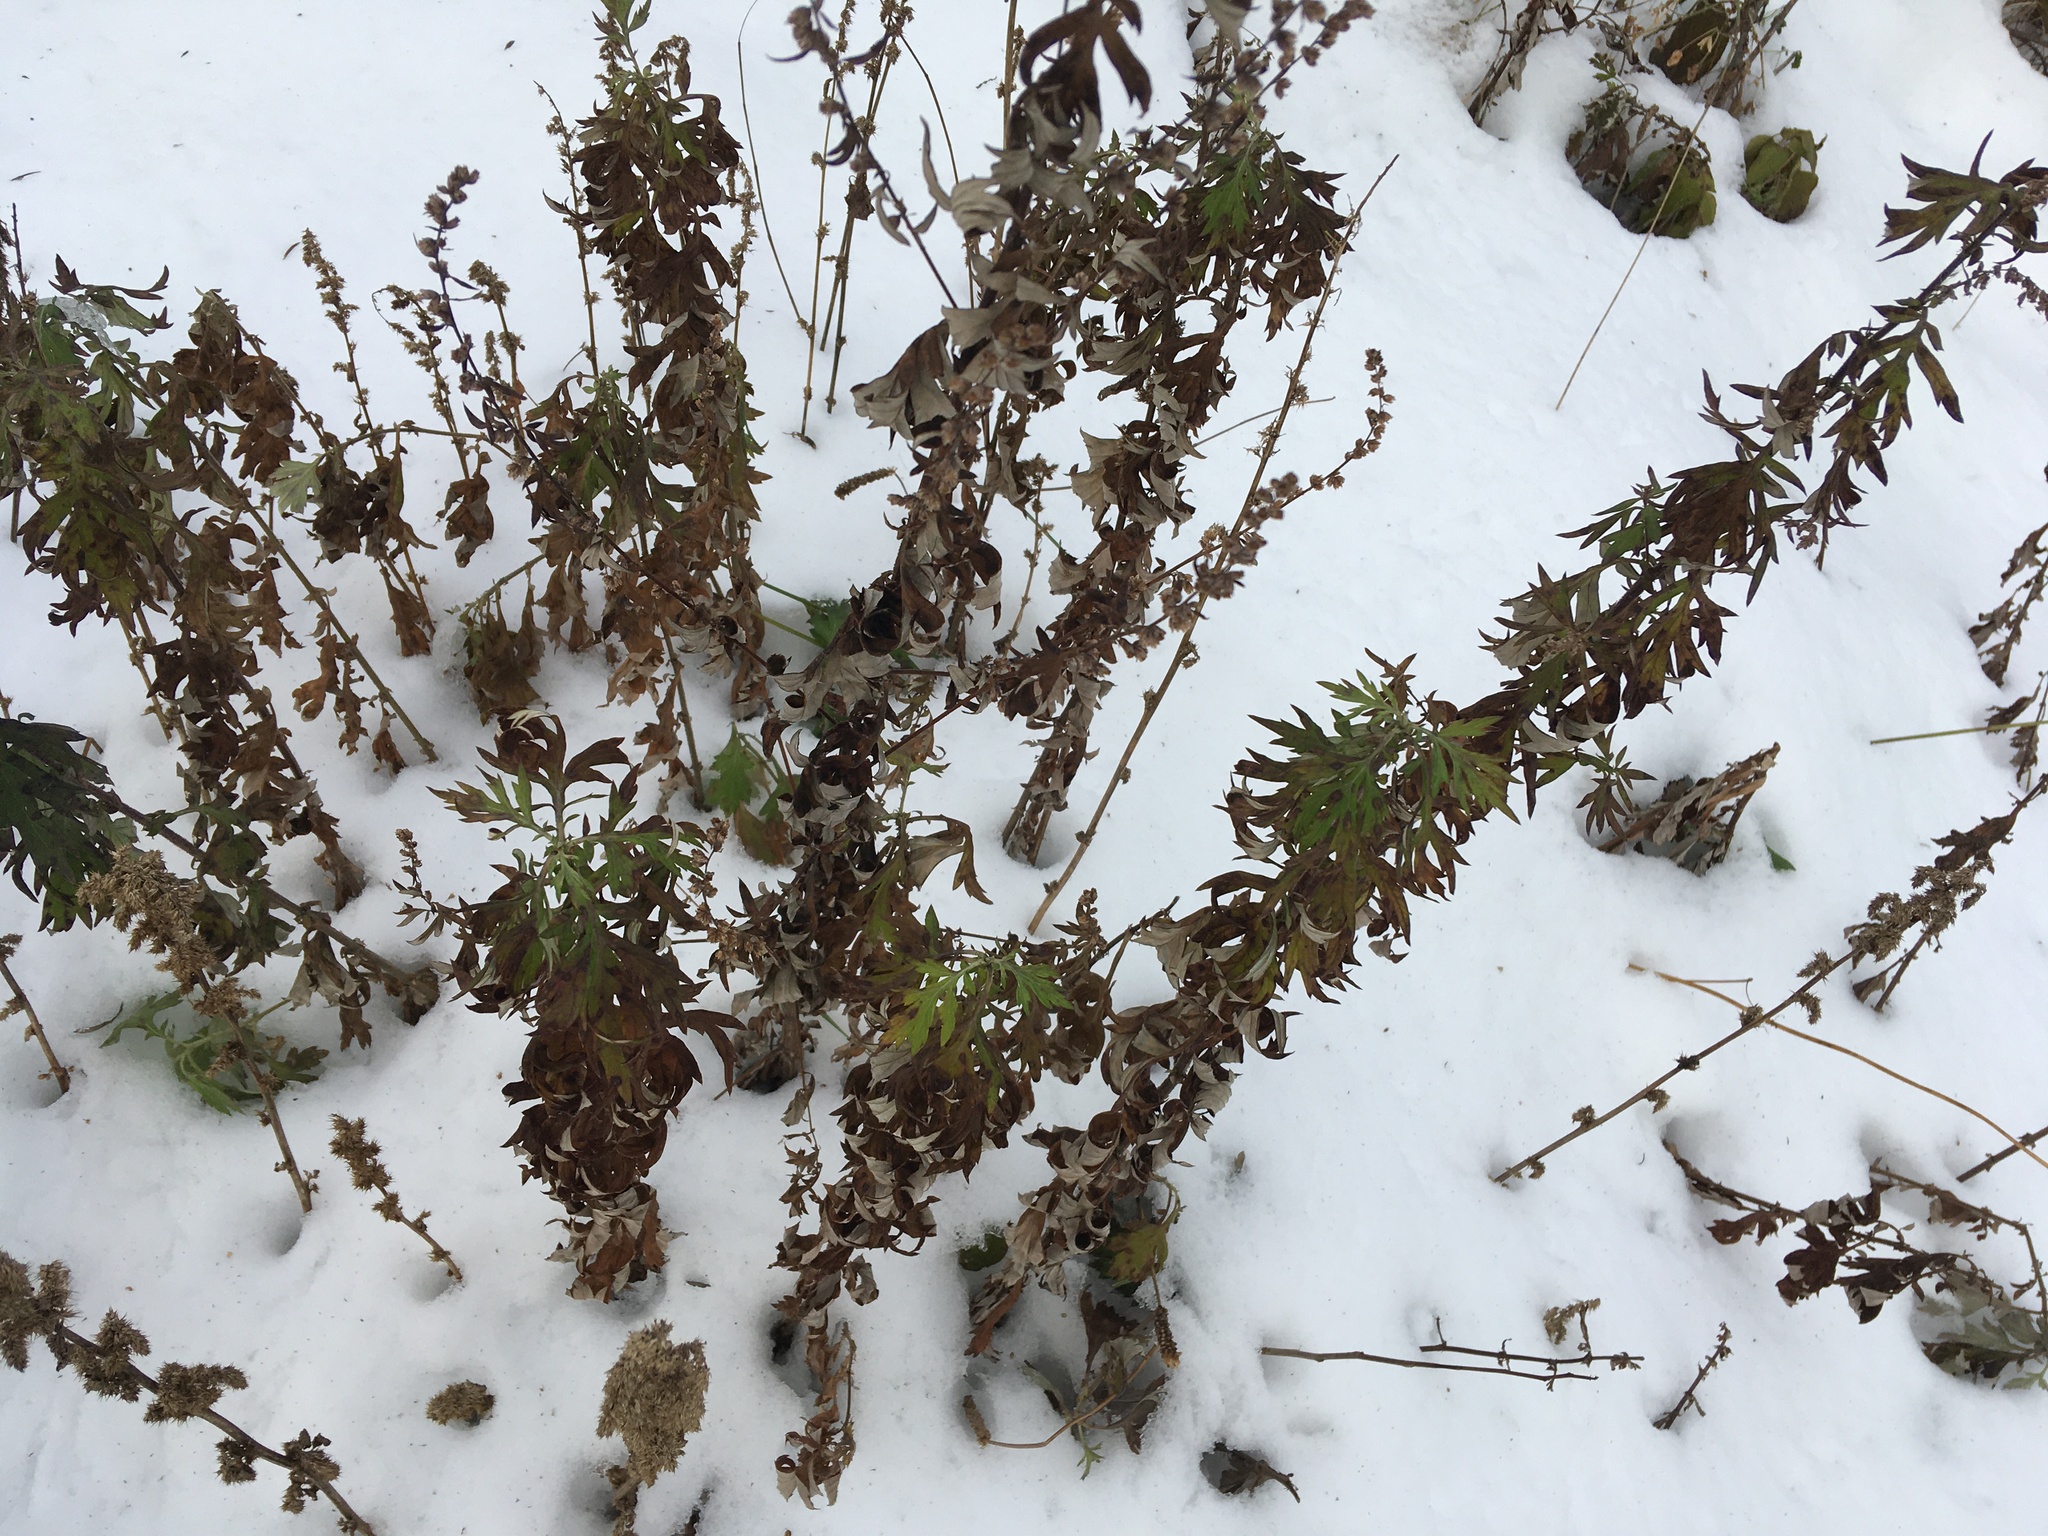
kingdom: Plantae
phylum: Tracheophyta
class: Magnoliopsida
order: Asterales
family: Asteraceae
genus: Artemisia
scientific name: Artemisia vulgaris
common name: Mugwort
